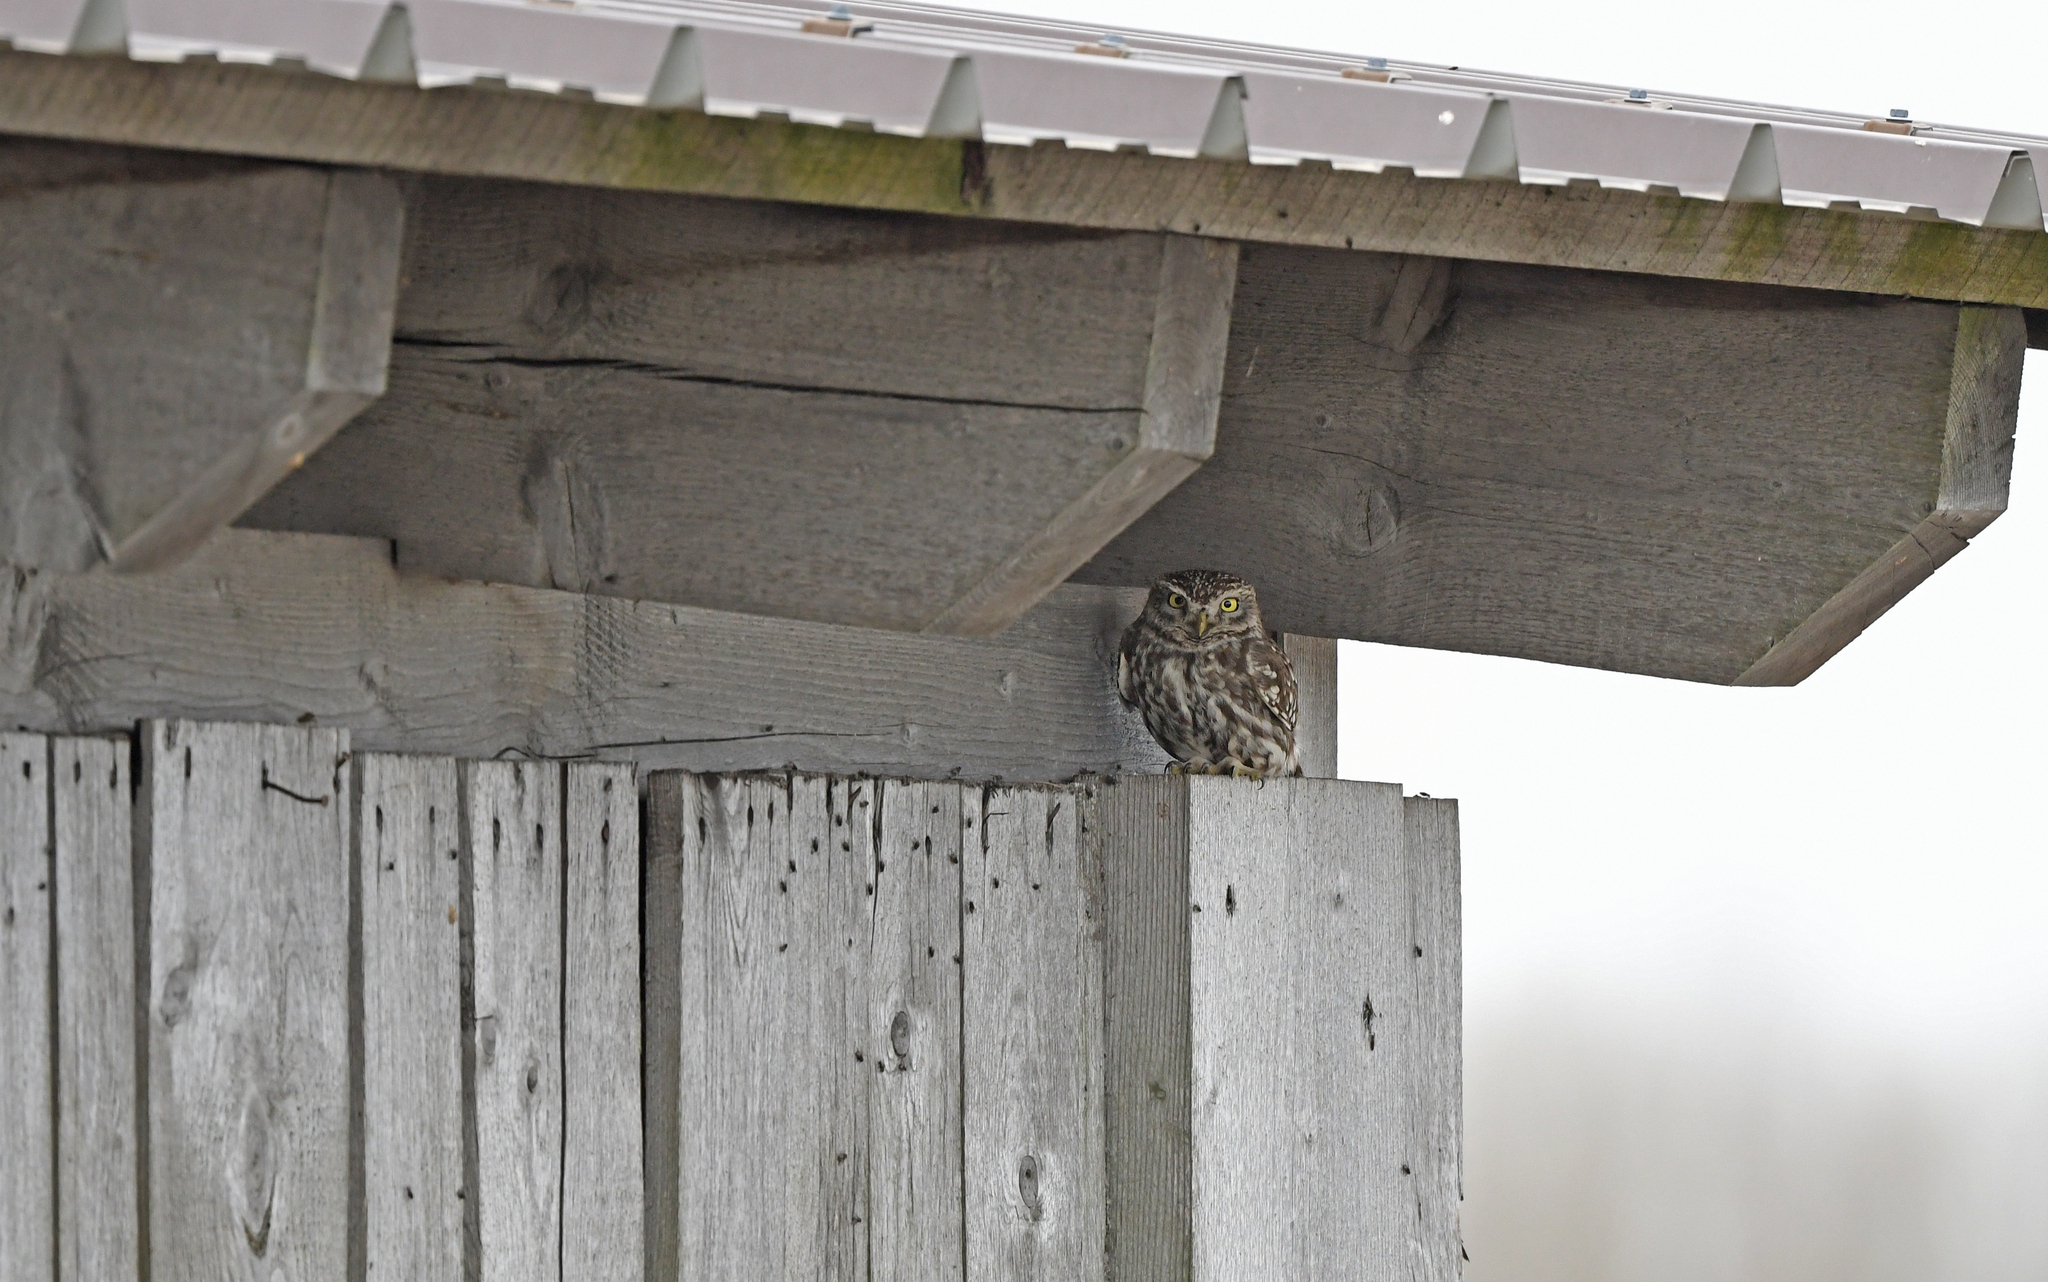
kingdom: Animalia
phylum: Chordata
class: Aves
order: Strigiformes
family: Strigidae
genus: Athene
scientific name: Athene noctua
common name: Little owl
